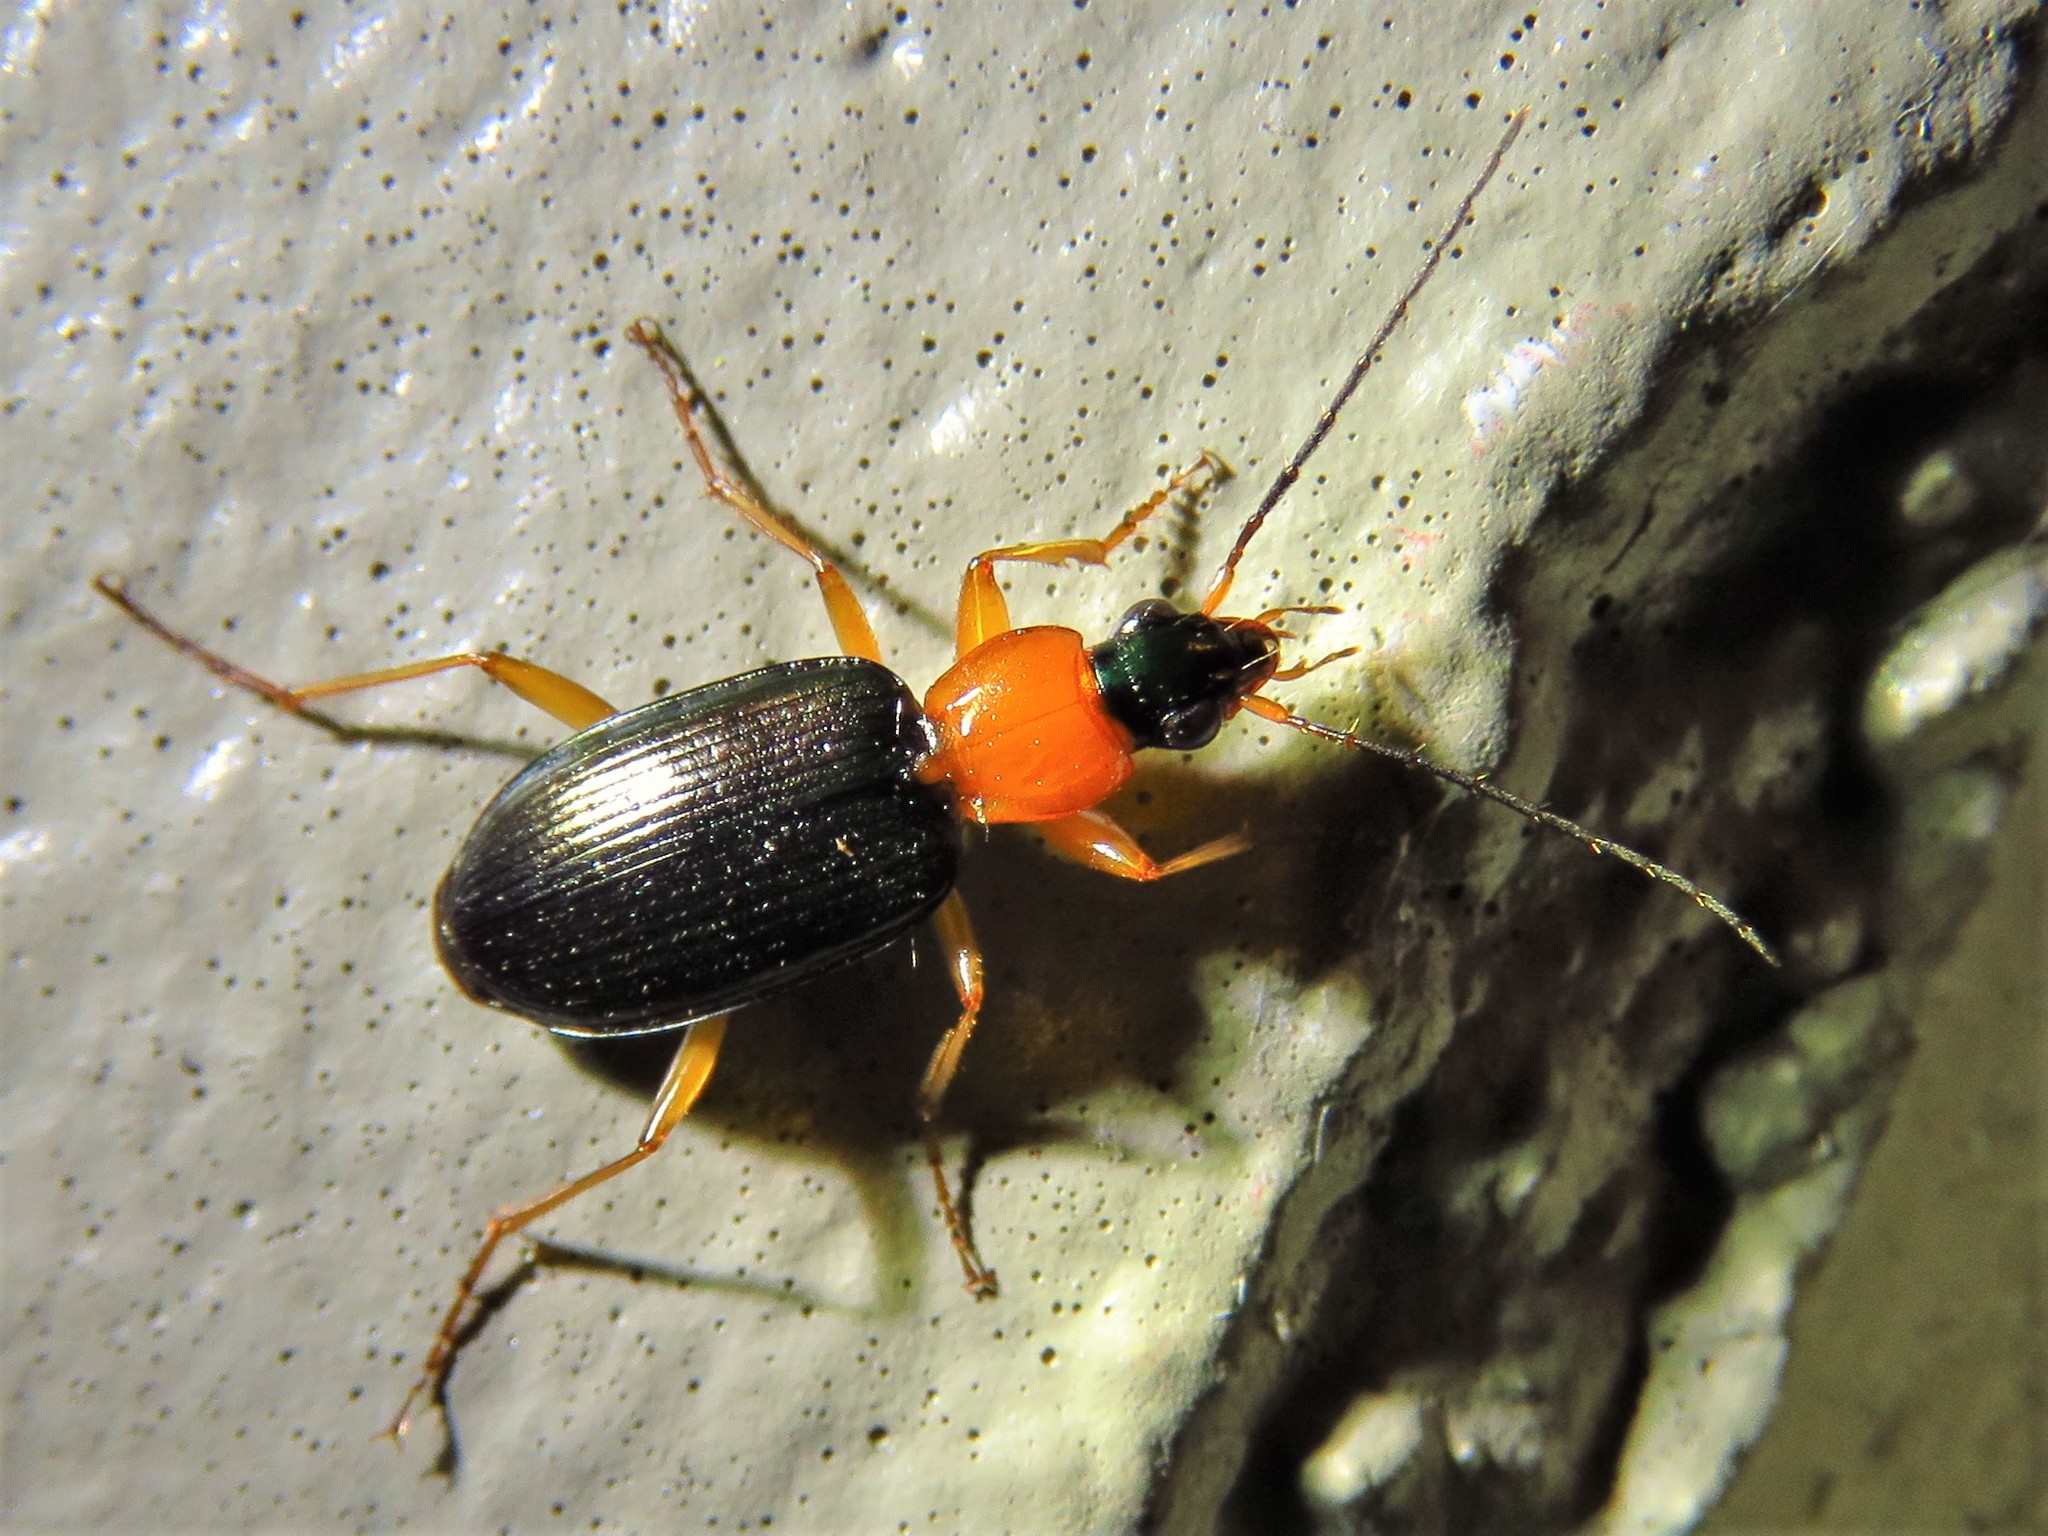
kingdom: Animalia
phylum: Arthropoda
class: Insecta
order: Coleoptera
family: Carabidae
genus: Agonum
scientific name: Agonum decorum
